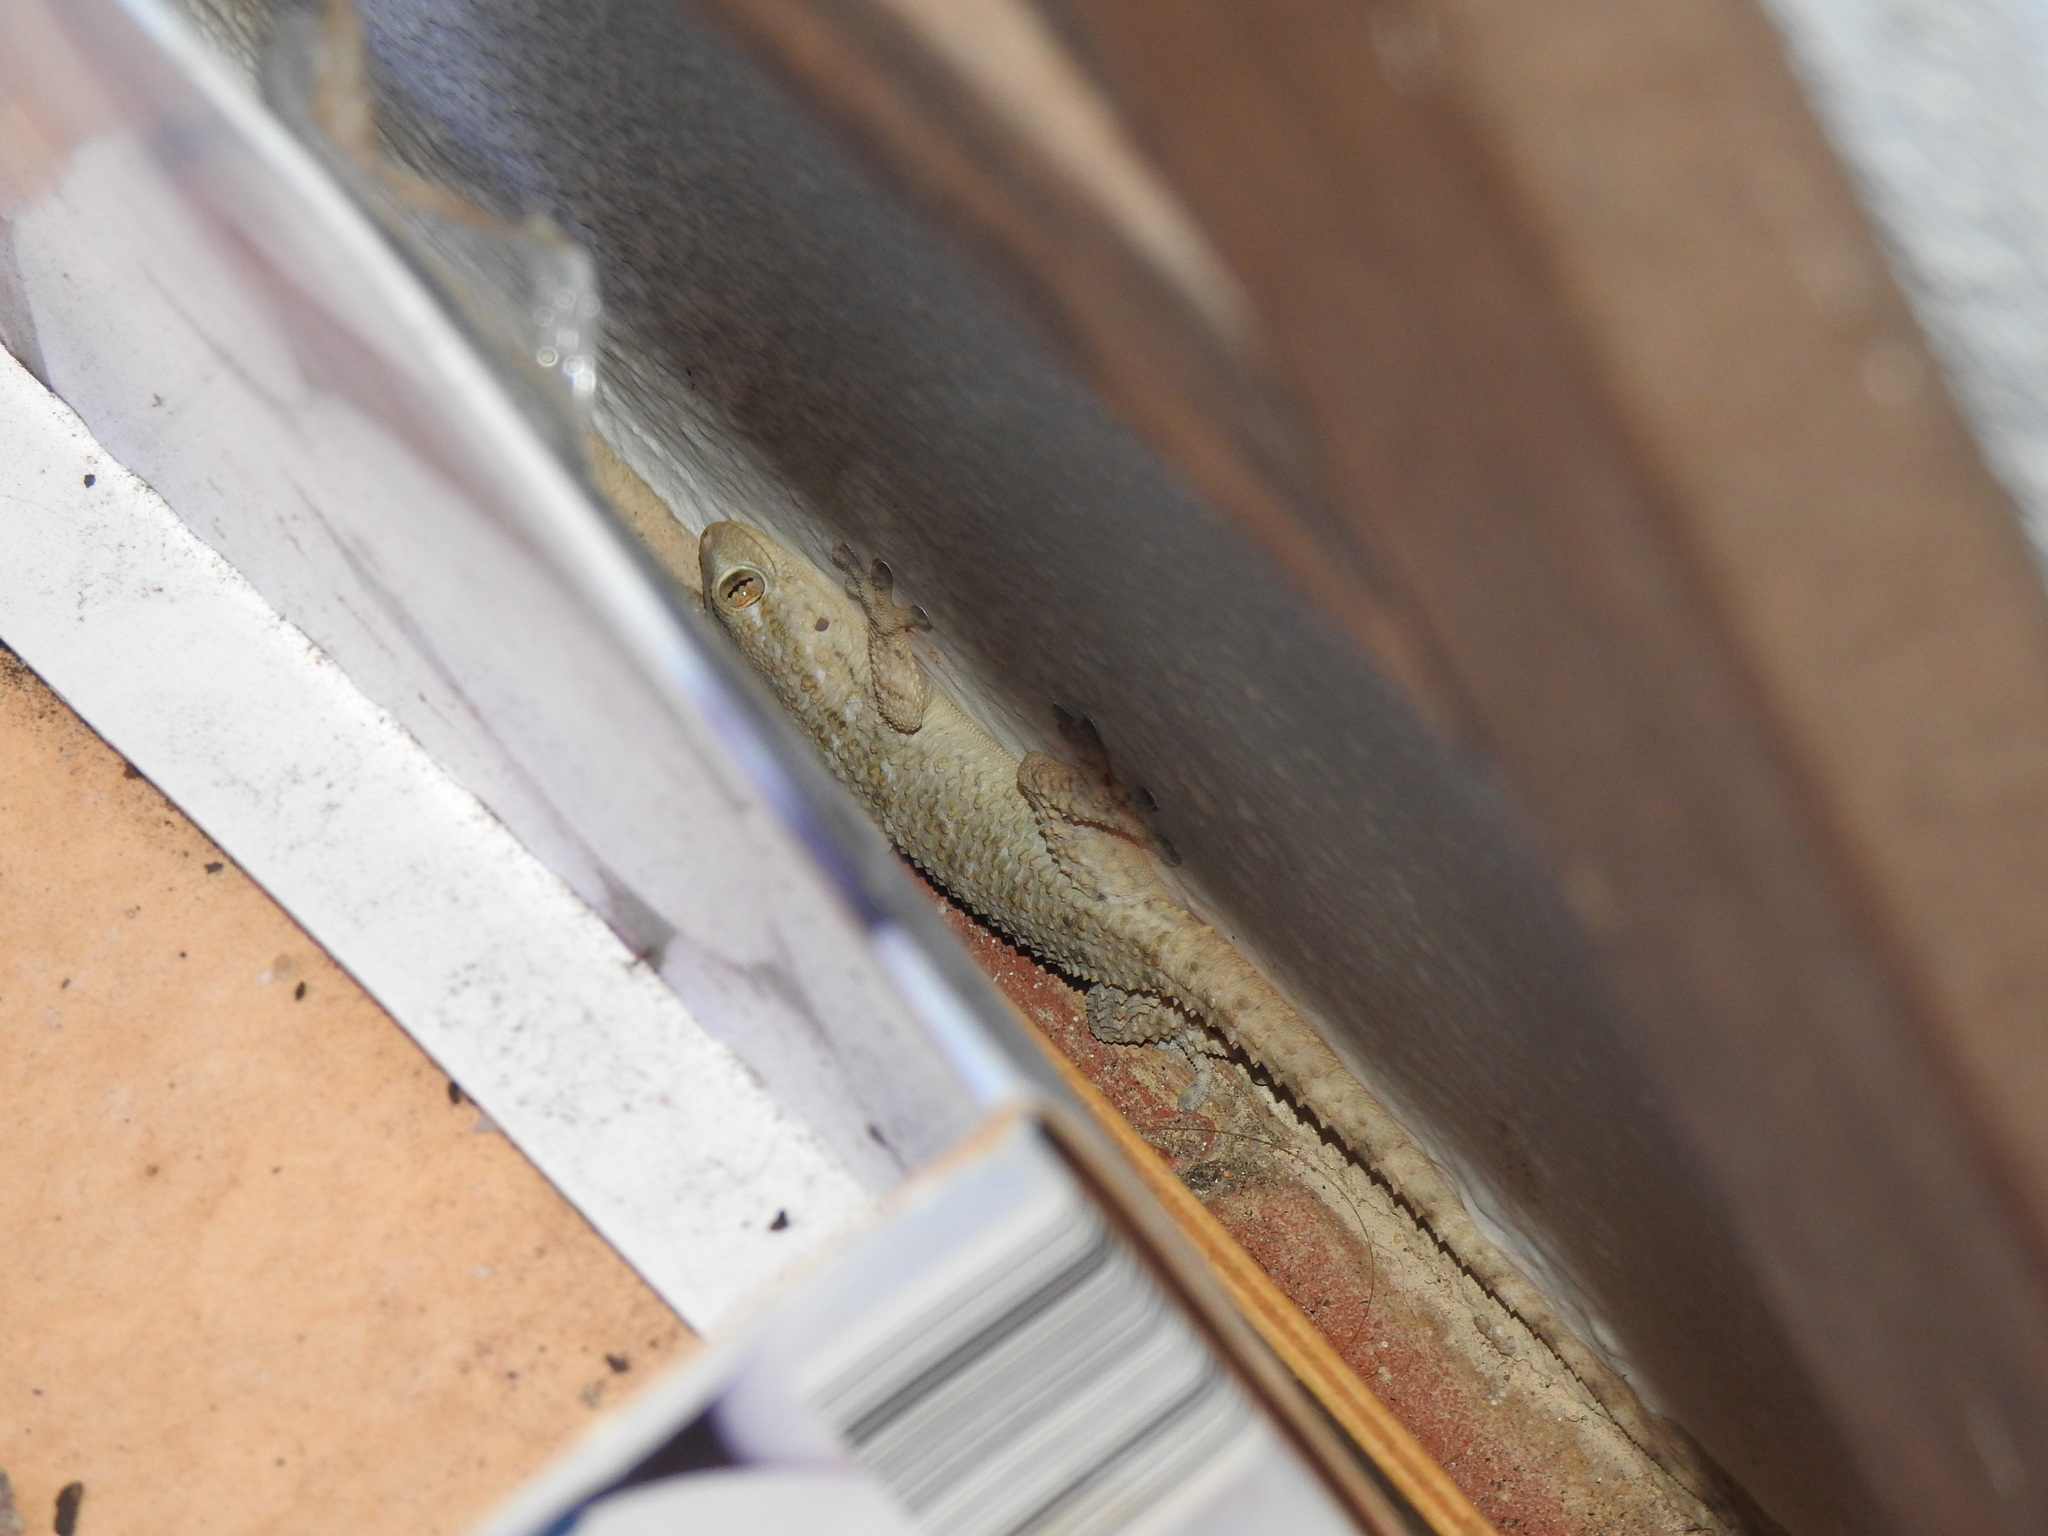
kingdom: Animalia
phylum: Chordata
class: Squamata
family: Phyllodactylidae
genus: Tarentola
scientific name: Tarentola mauritanica
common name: Moorish gecko
